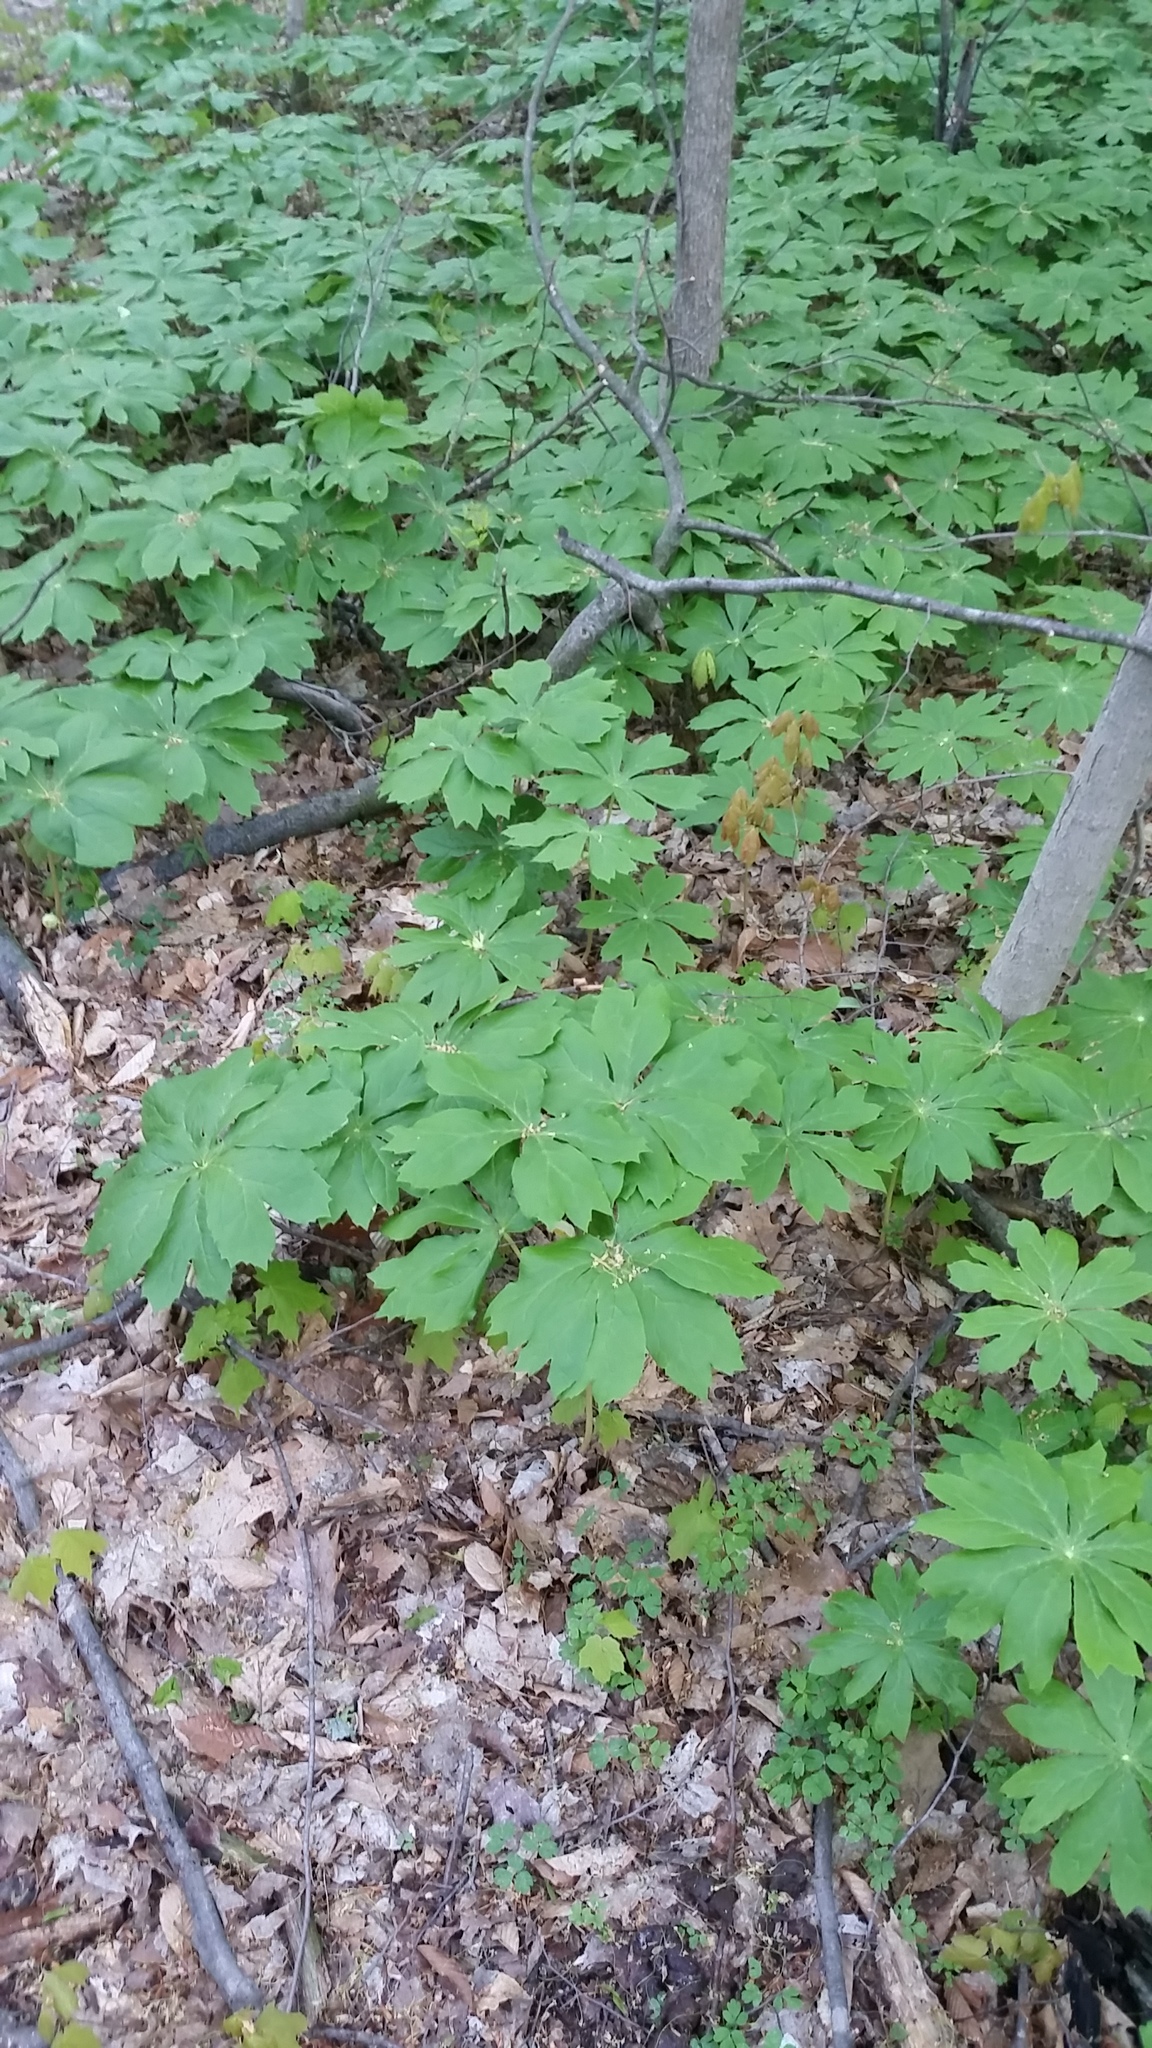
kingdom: Plantae
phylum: Tracheophyta
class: Magnoliopsida
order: Ranunculales
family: Berberidaceae
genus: Podophyllum
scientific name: Podophyllum peltatum
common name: Wild mandrake
